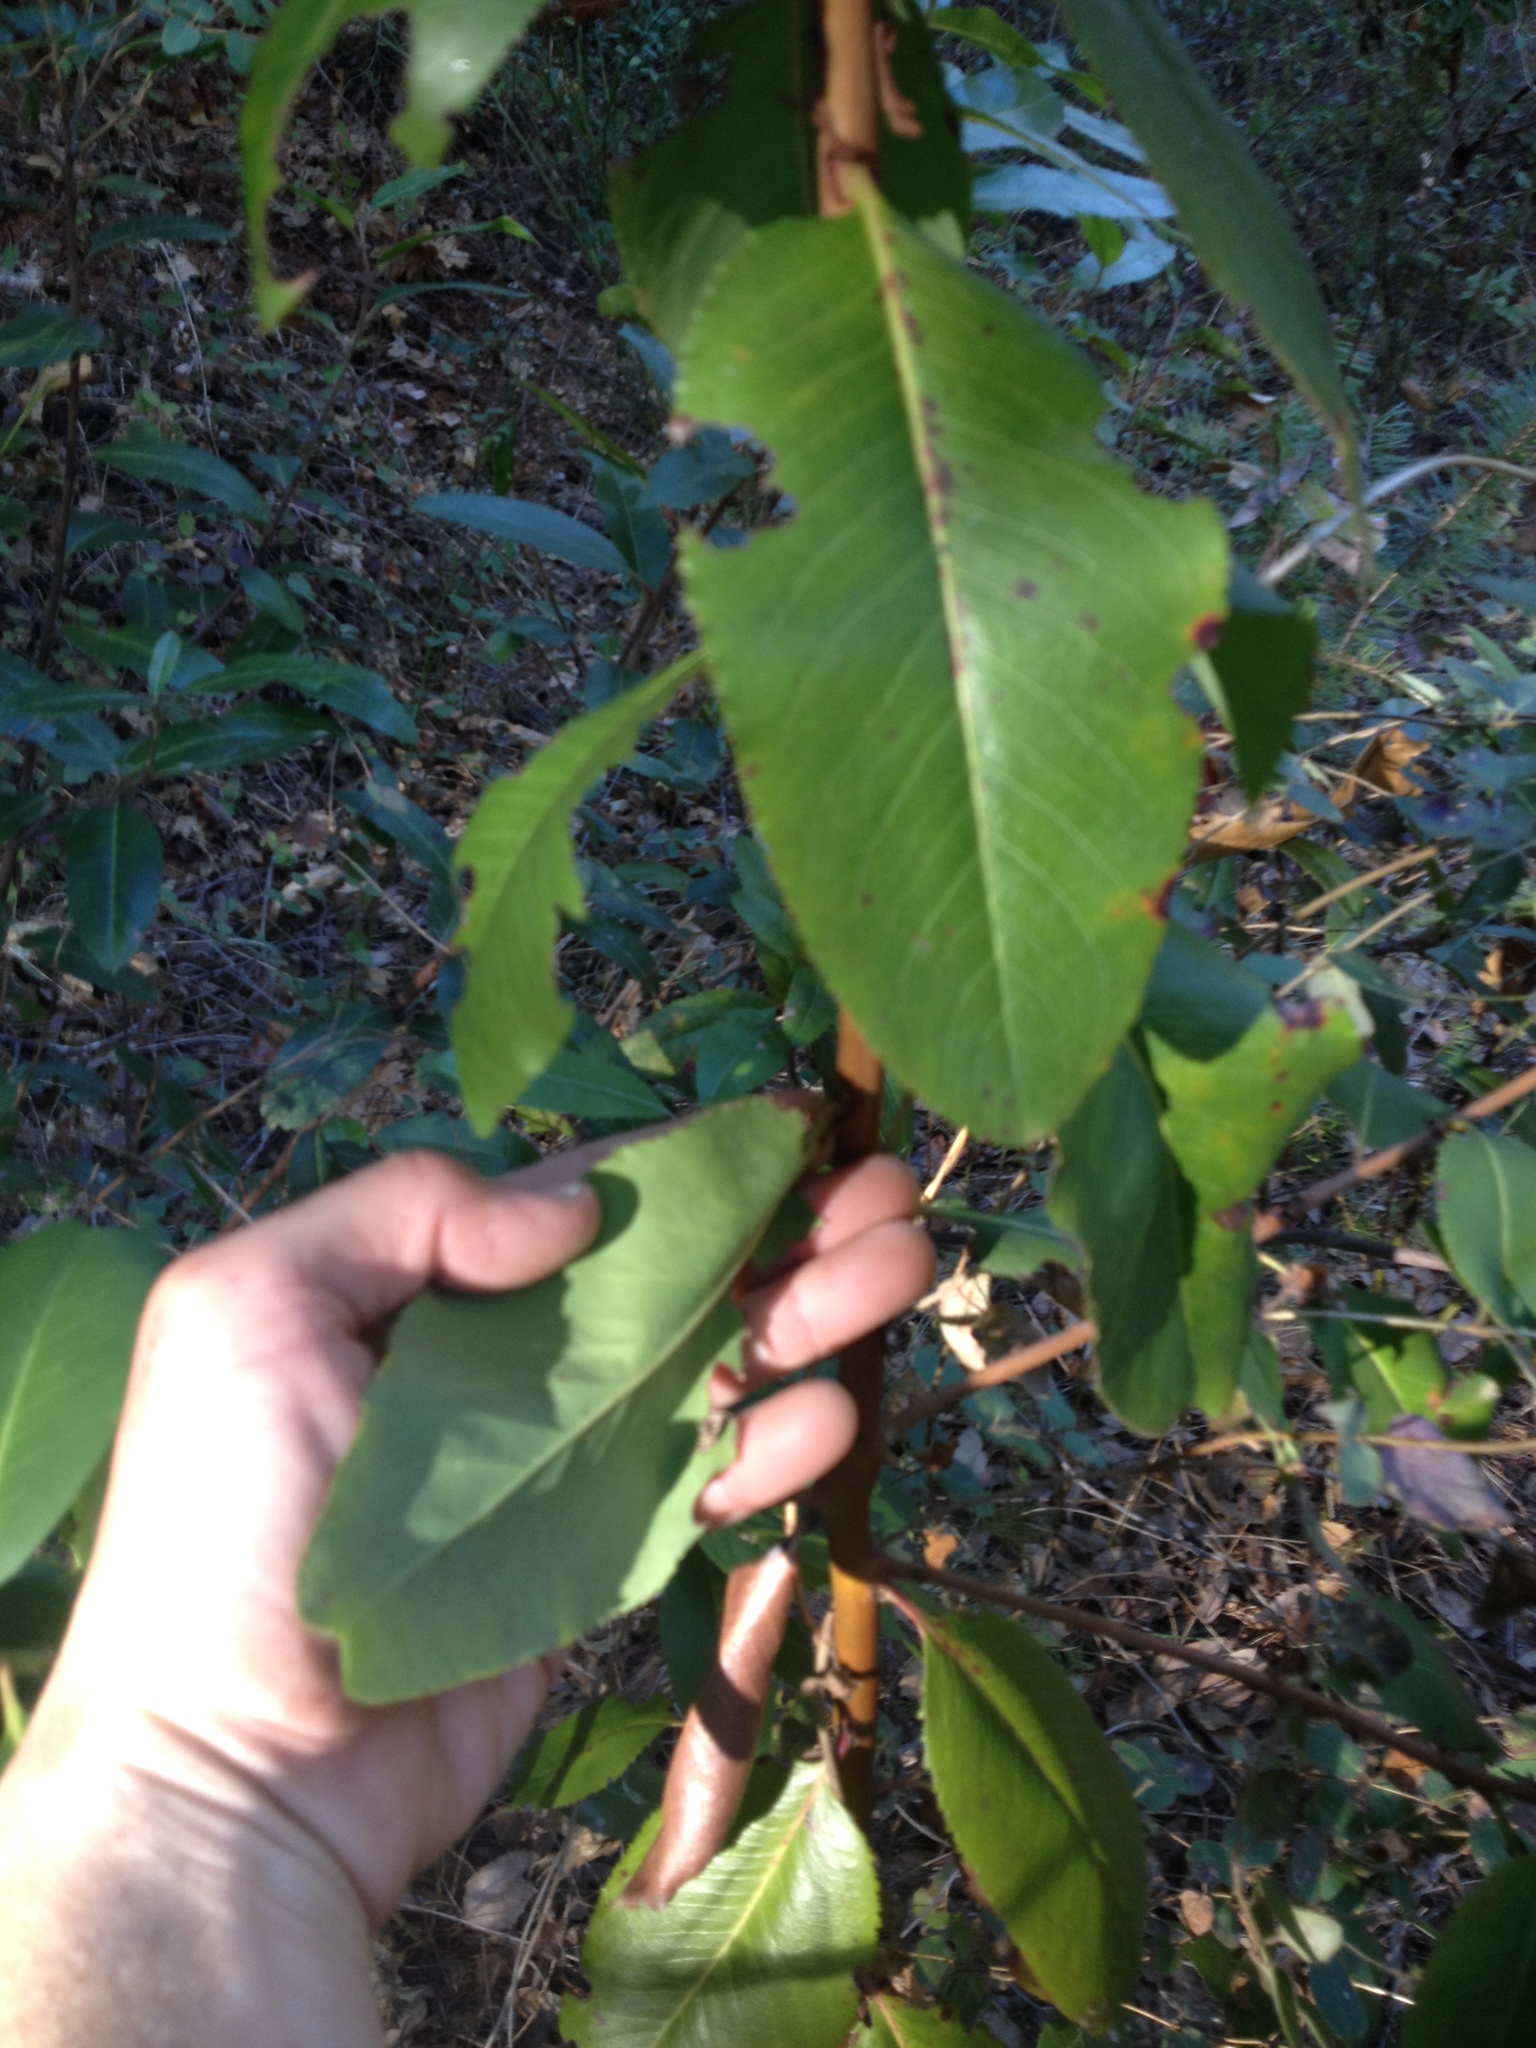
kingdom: Plantae
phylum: Tracheophyta
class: Magnoliopsida
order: Ericales
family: Ericaceae
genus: Arbutus
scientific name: Arbutus menziesii
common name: Pacific madrone
